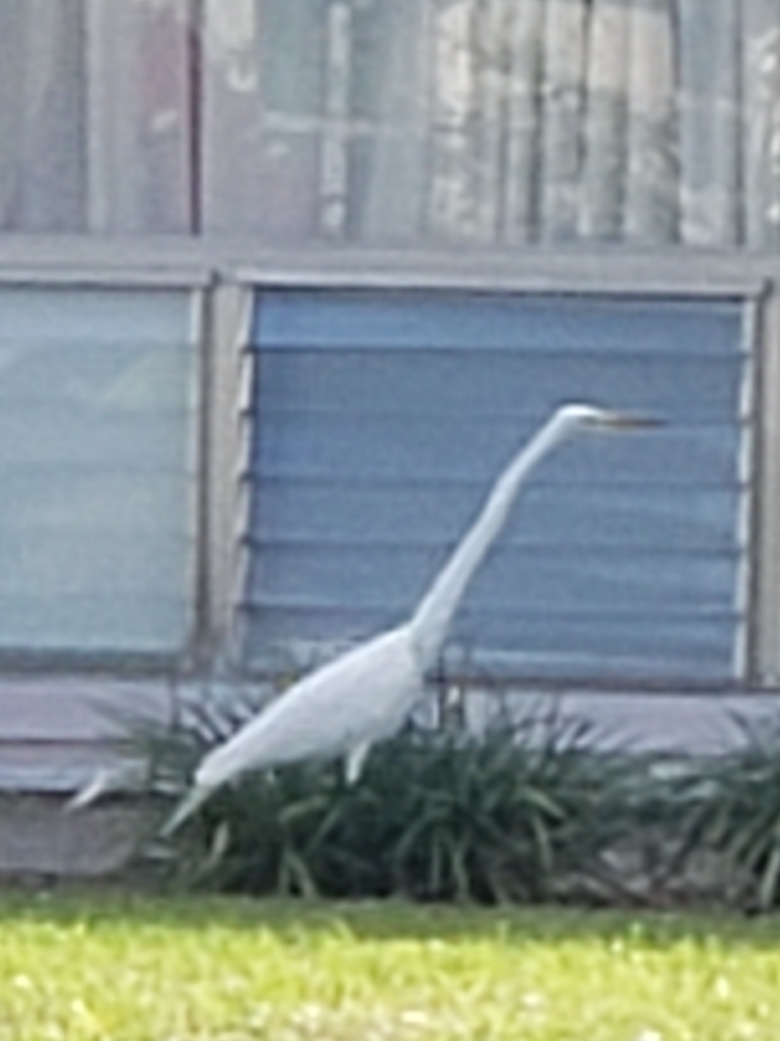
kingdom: Animalia
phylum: Chordata
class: Aves
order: Pelecaniformes
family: Ardeidae
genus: Ardea
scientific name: Ardea alba
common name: Great egret
